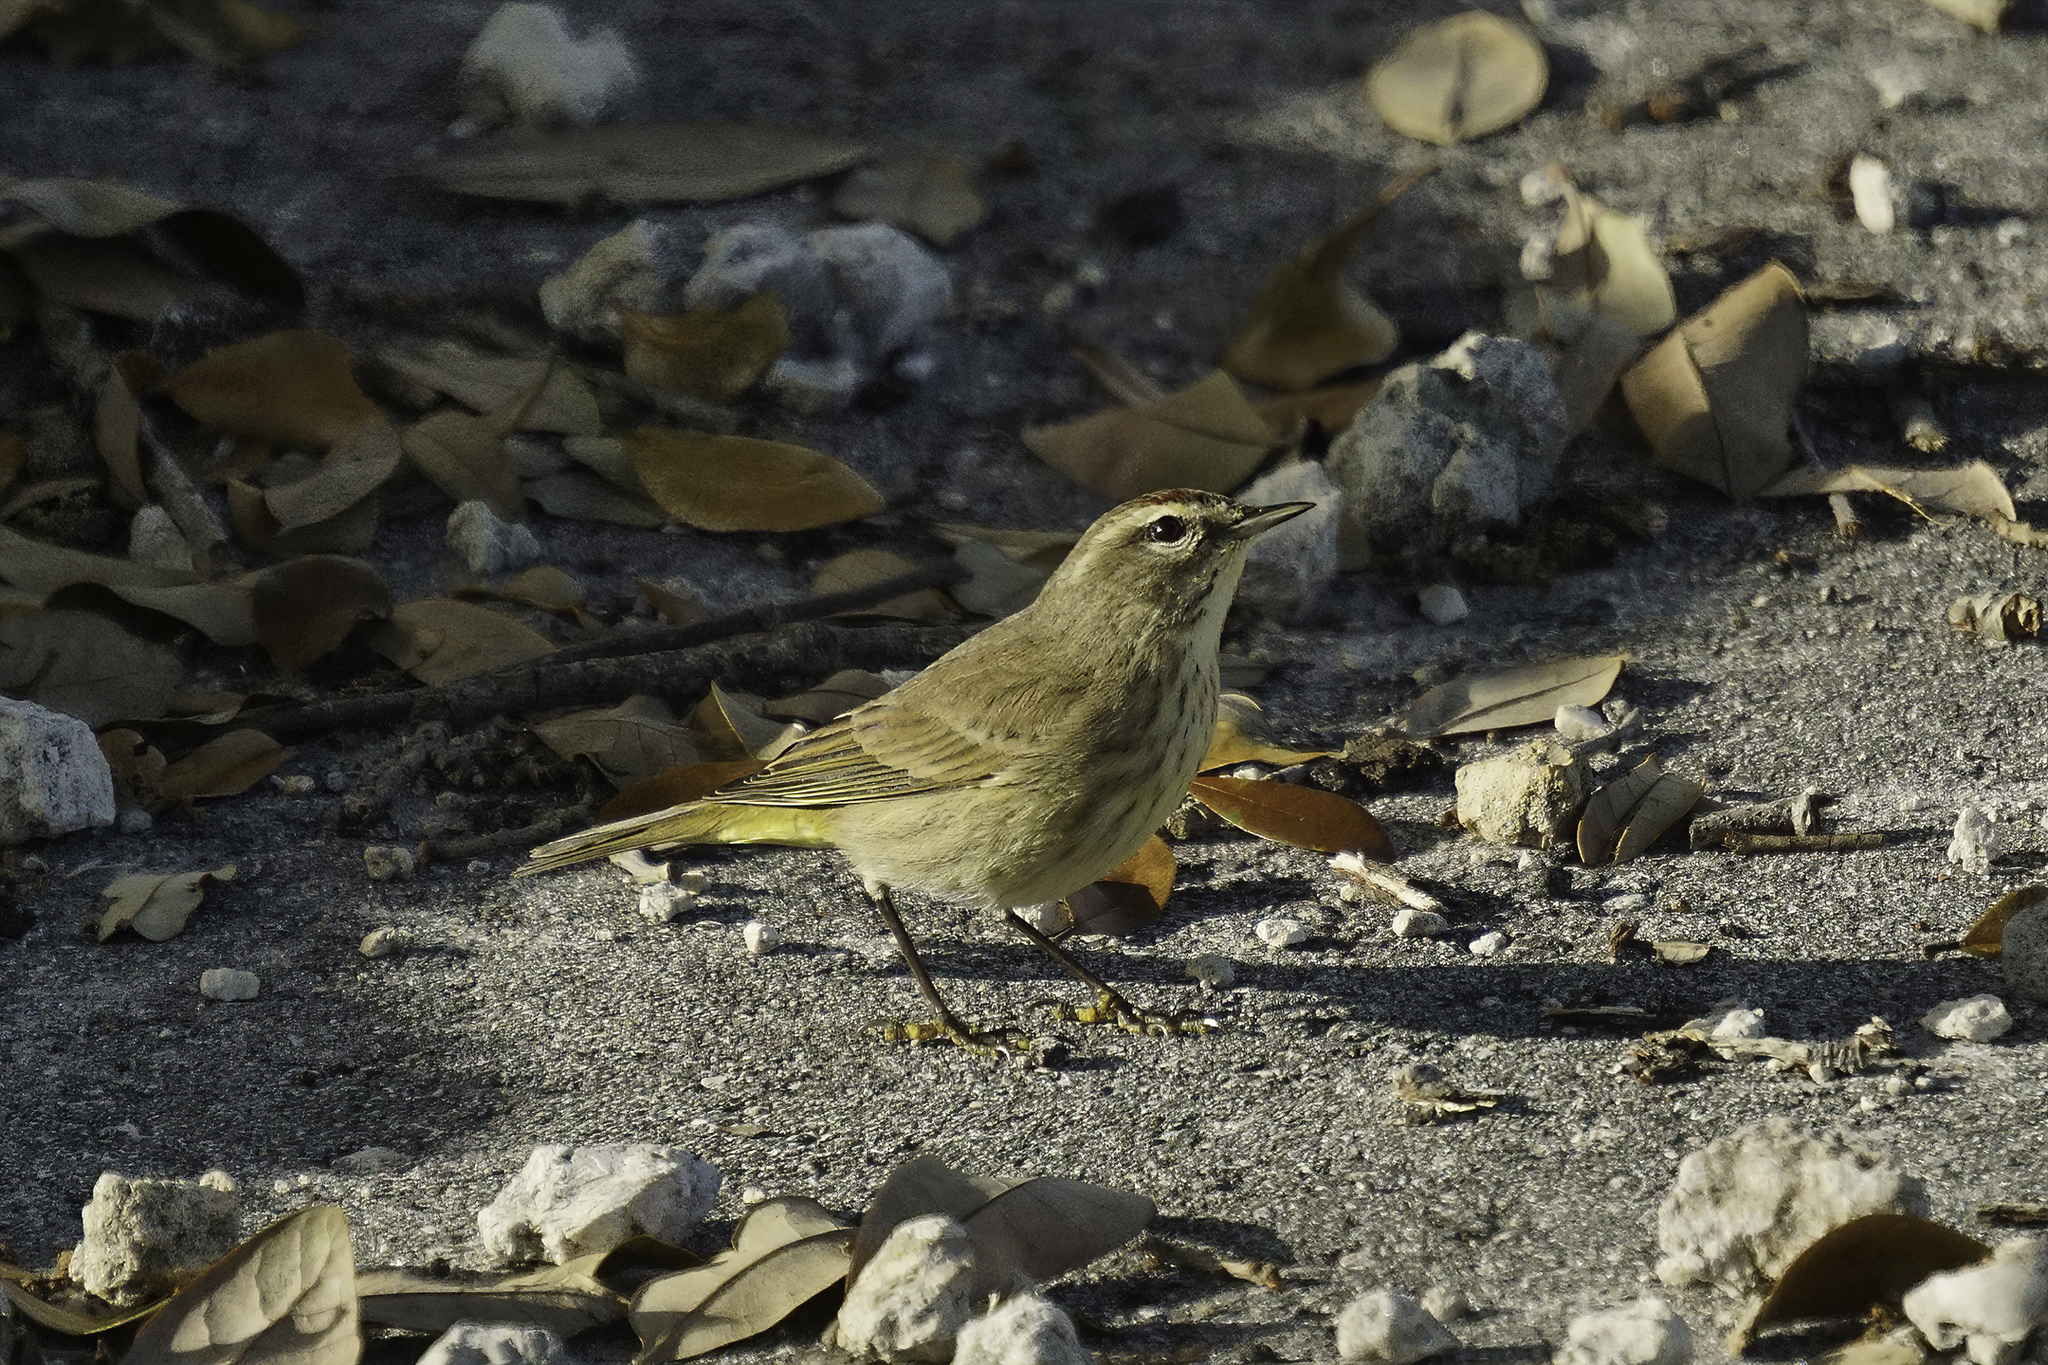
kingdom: Animalia
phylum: Chordata
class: Aves
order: Passeriformes
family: Parulidae
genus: Setophaga
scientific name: Setophaga palmarum
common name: Palm warbler
